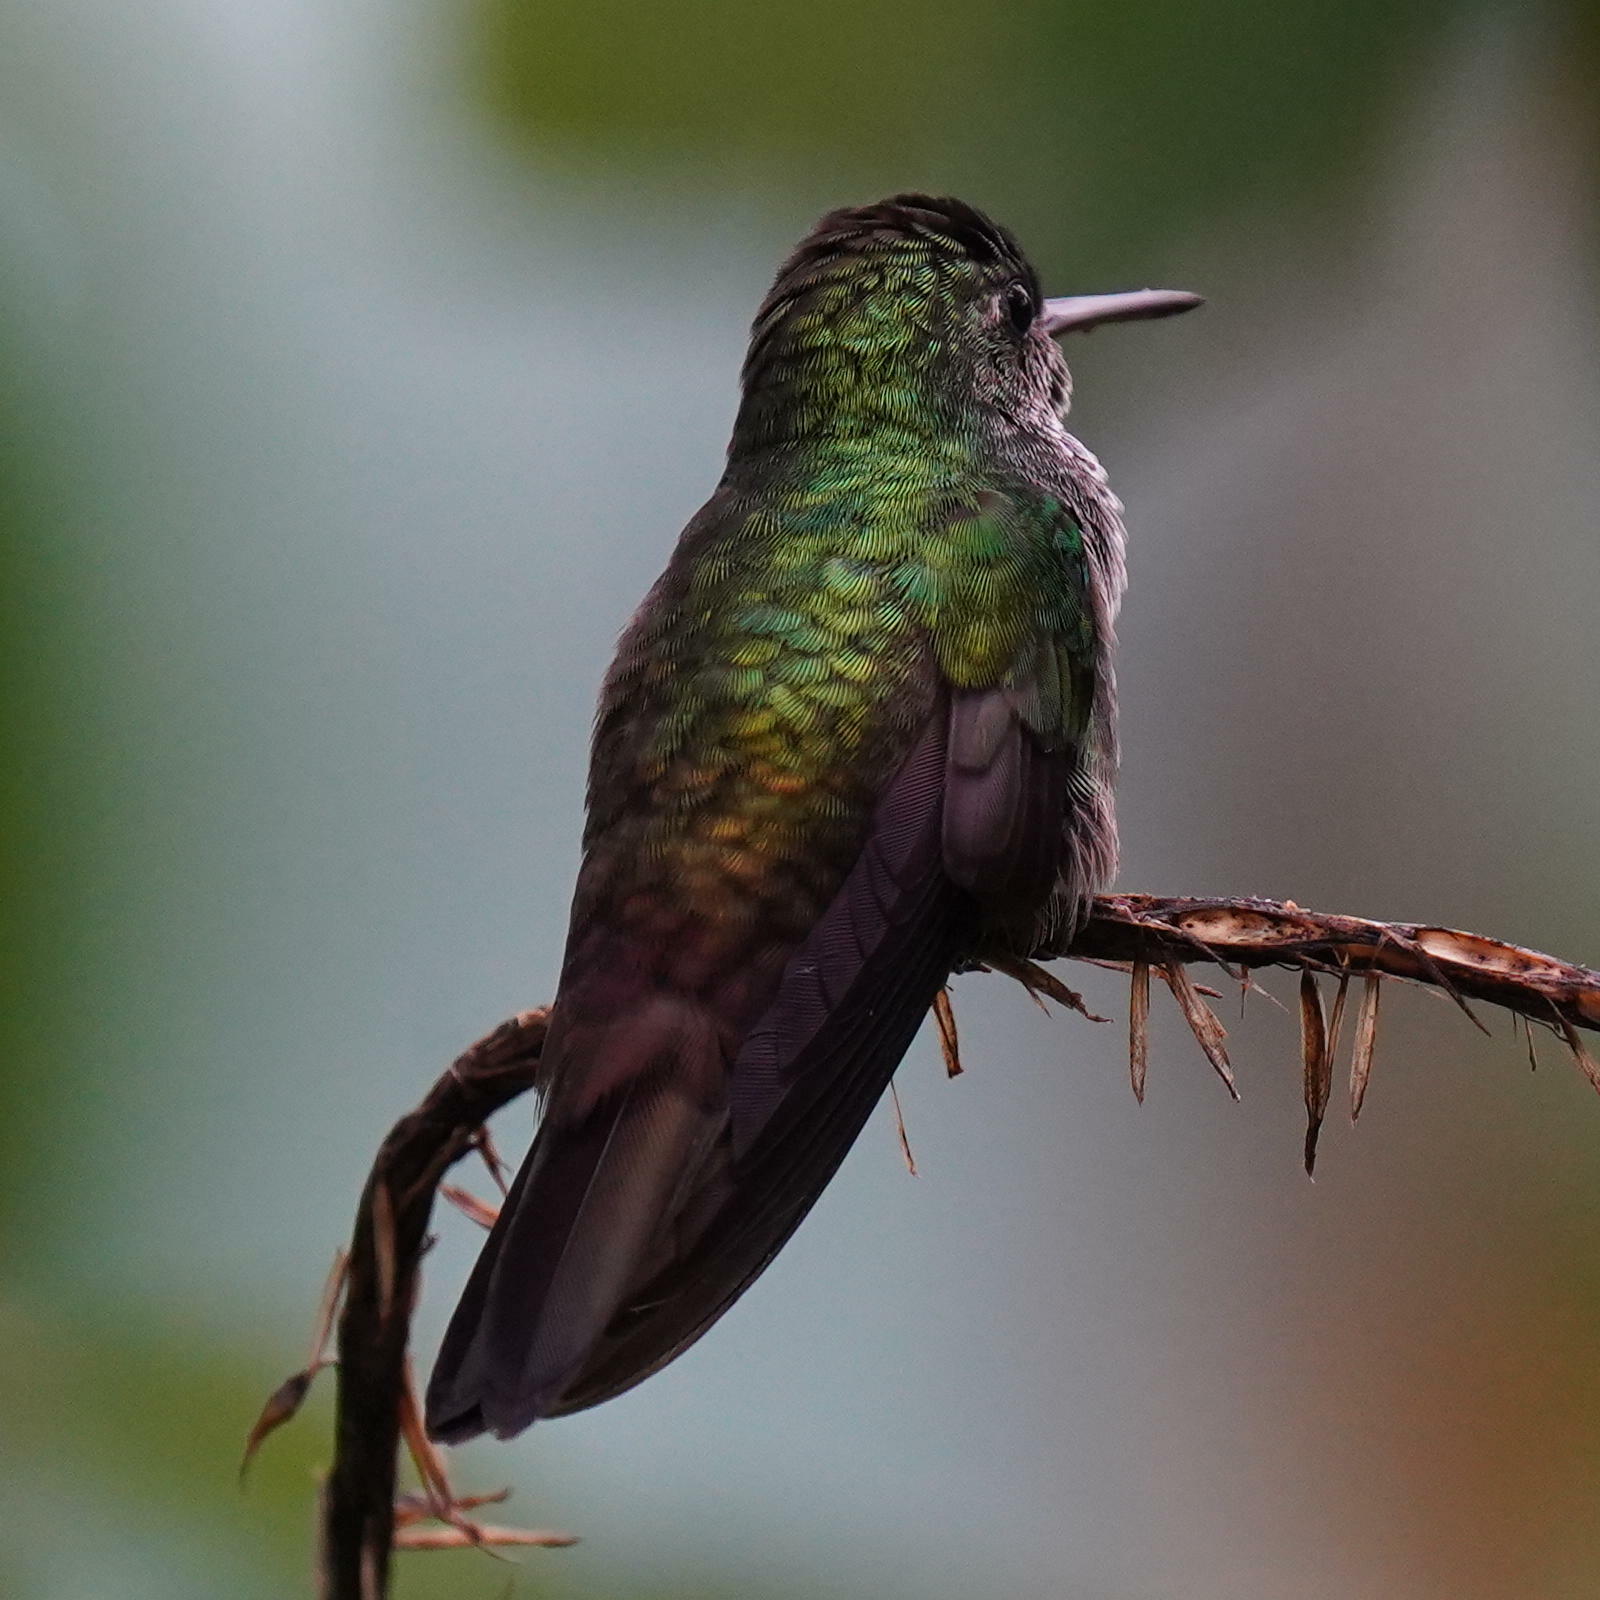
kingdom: Animalia
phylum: Chordata
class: Aves
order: Apodiformes
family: Trochilidae
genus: Polyerata
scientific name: Polyerata amabilis
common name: Blue-chested hummingbird
